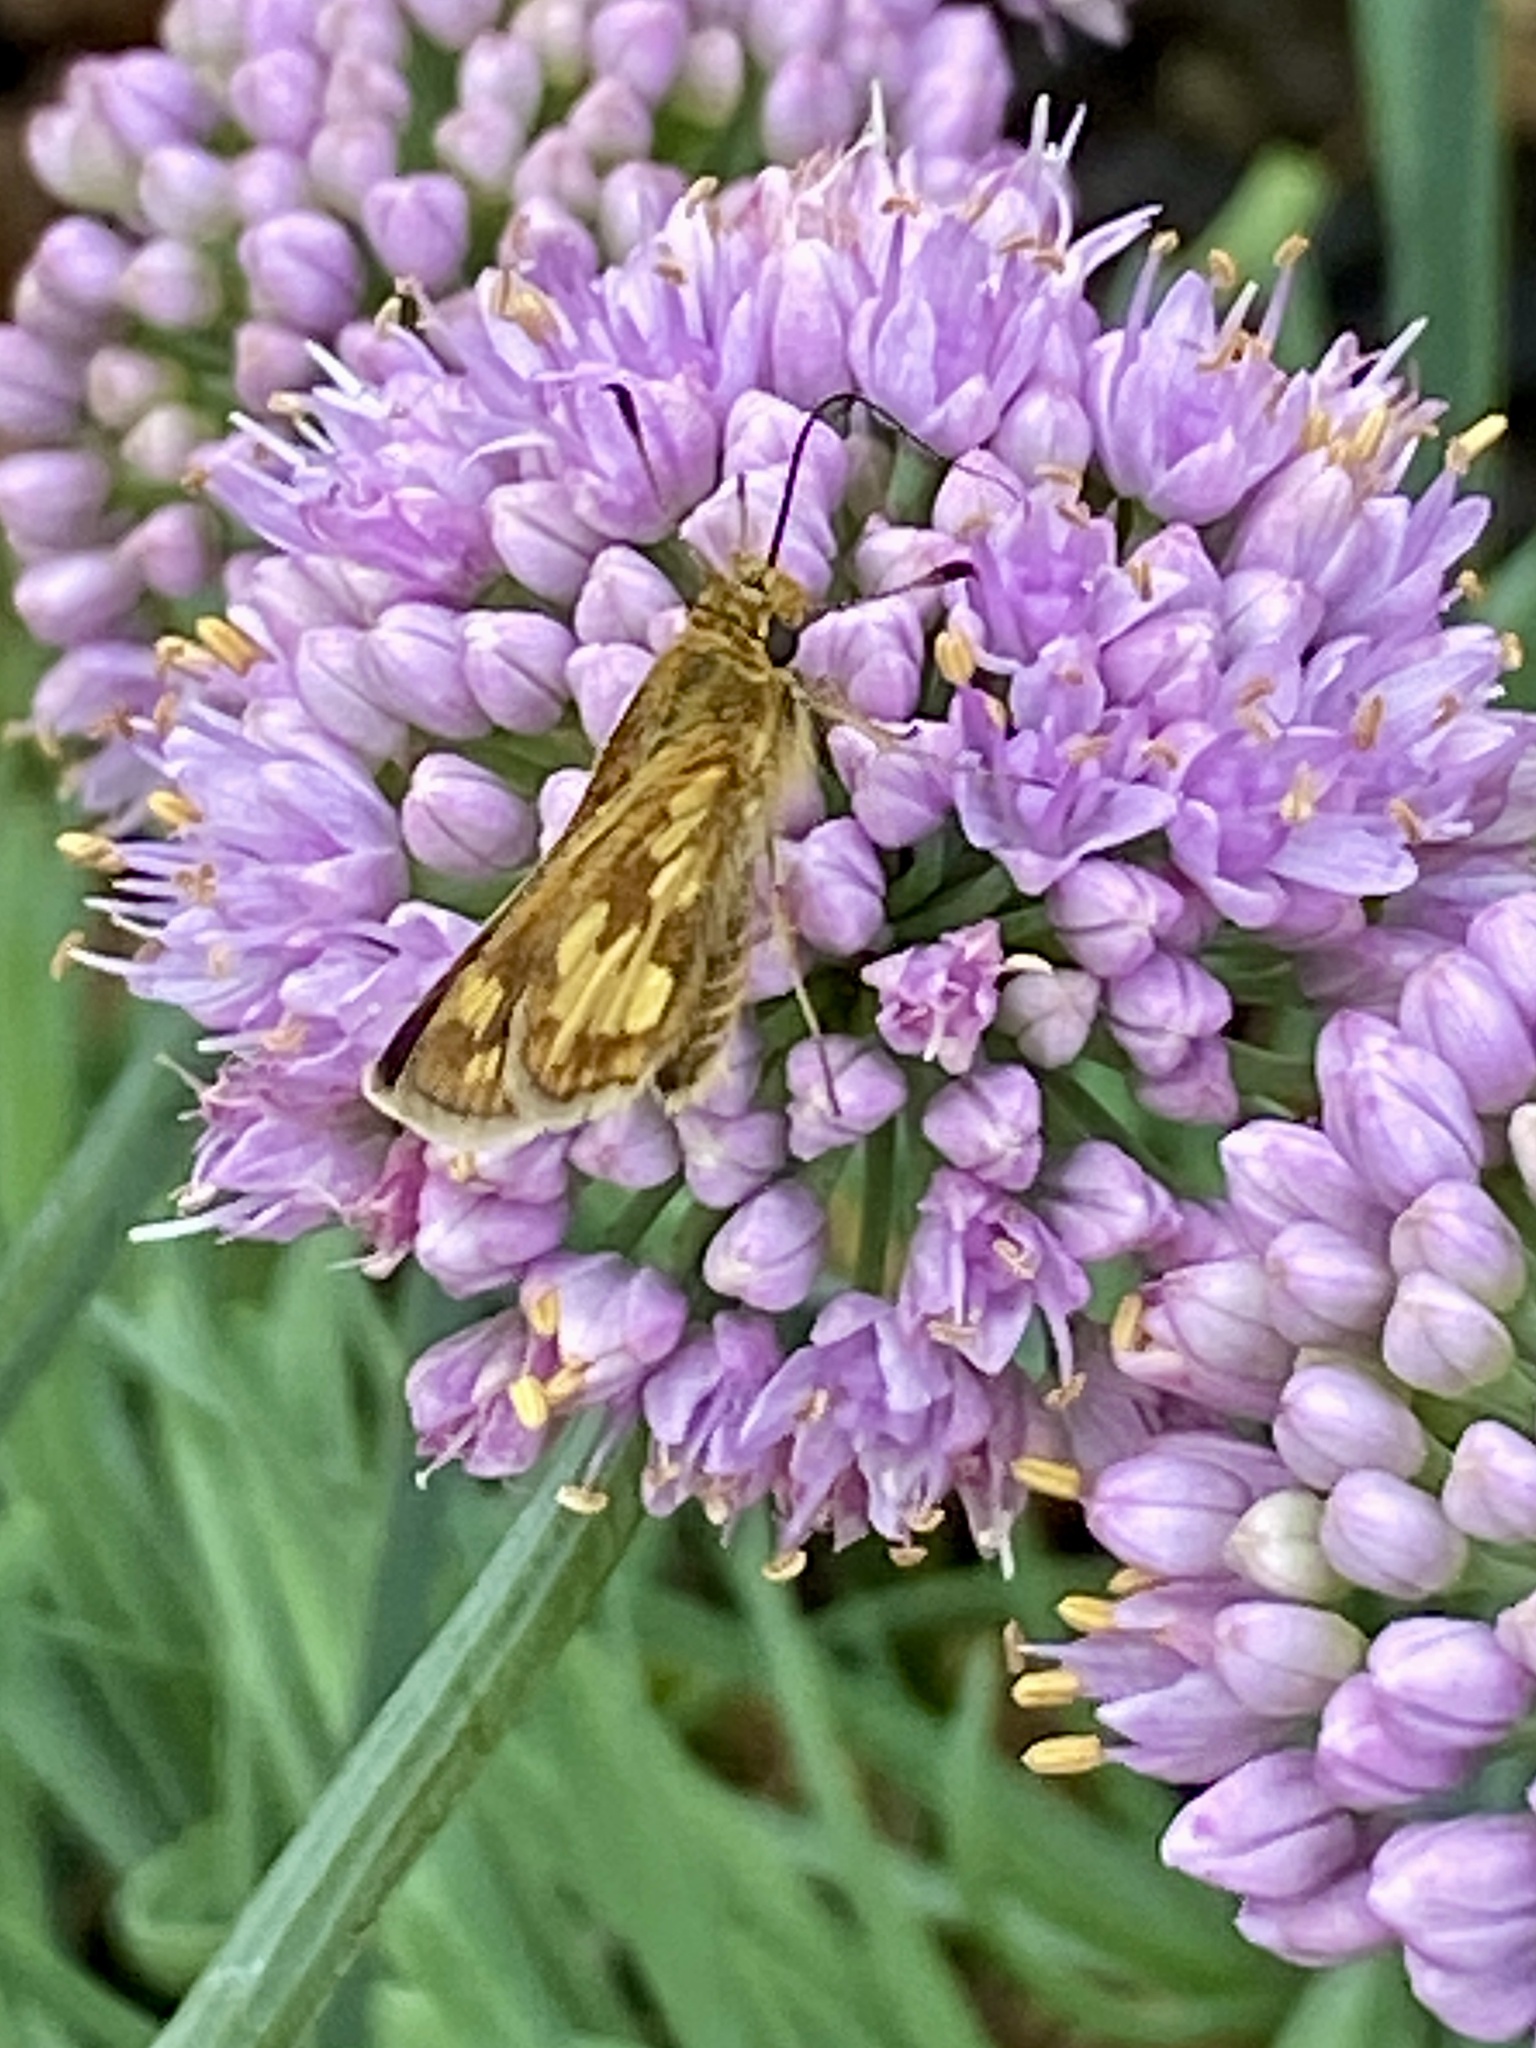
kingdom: Animalia
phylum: Arthropoda
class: Insecta
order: Lepidoptera
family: Hesperiidae
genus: Polites
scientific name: Polites coras
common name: Peck's skipper
